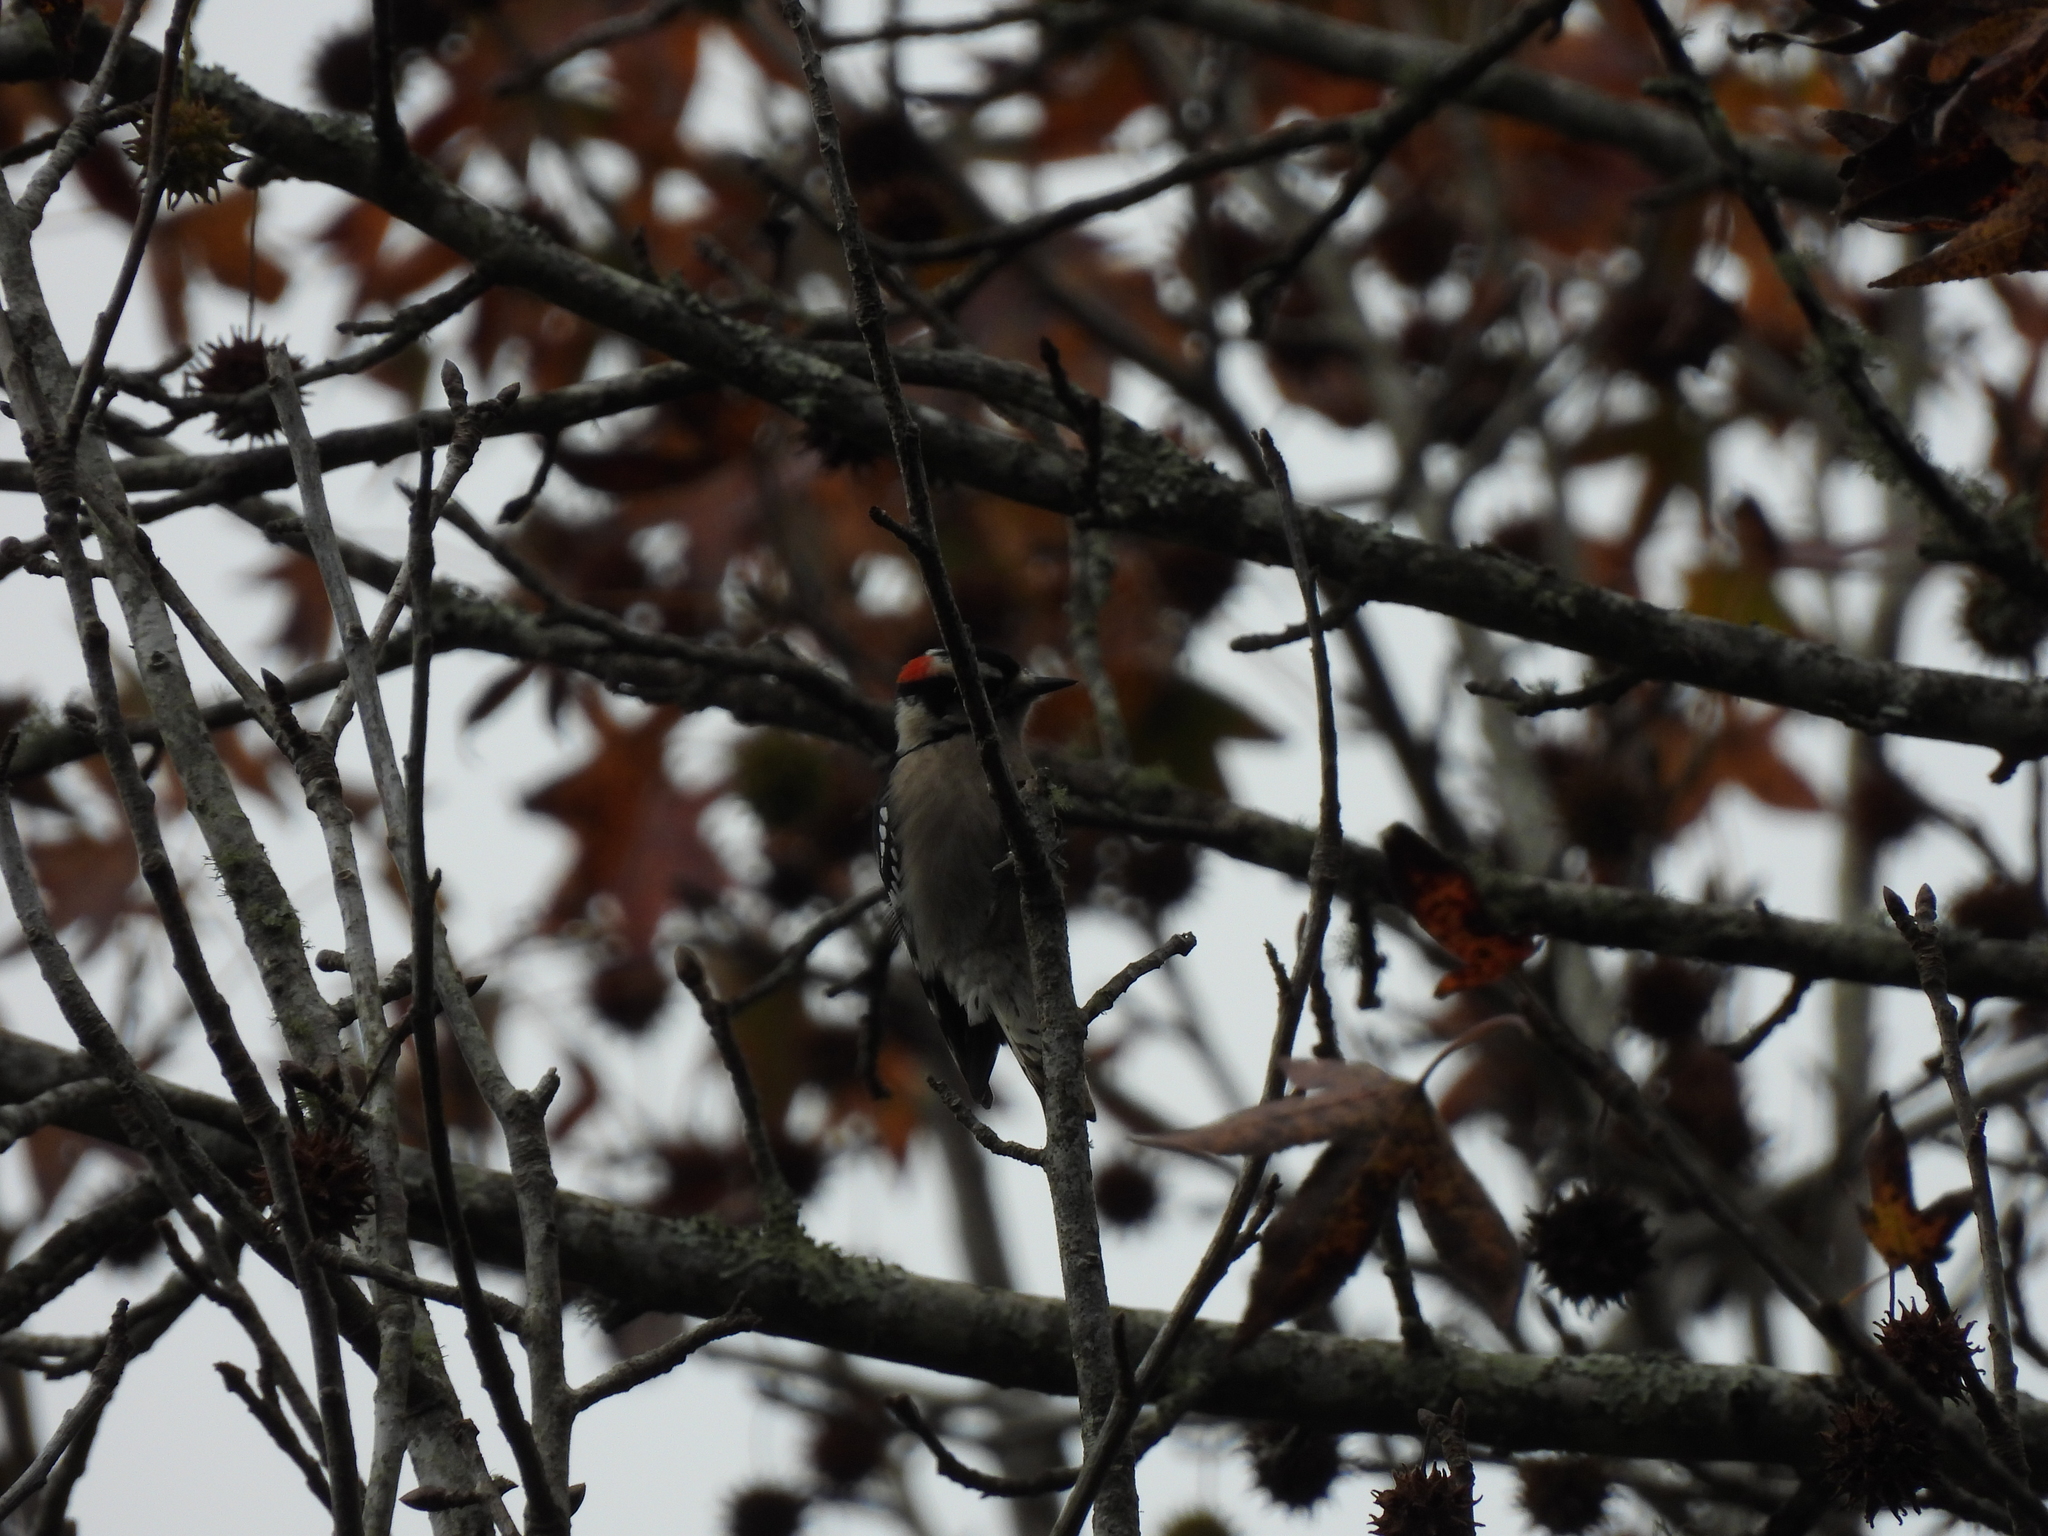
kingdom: Animalia
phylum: Chordata
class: Aves
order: Piciformes
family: Picidae
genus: Dryobates
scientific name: Dryobates pubescens
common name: Downy woodpecker
